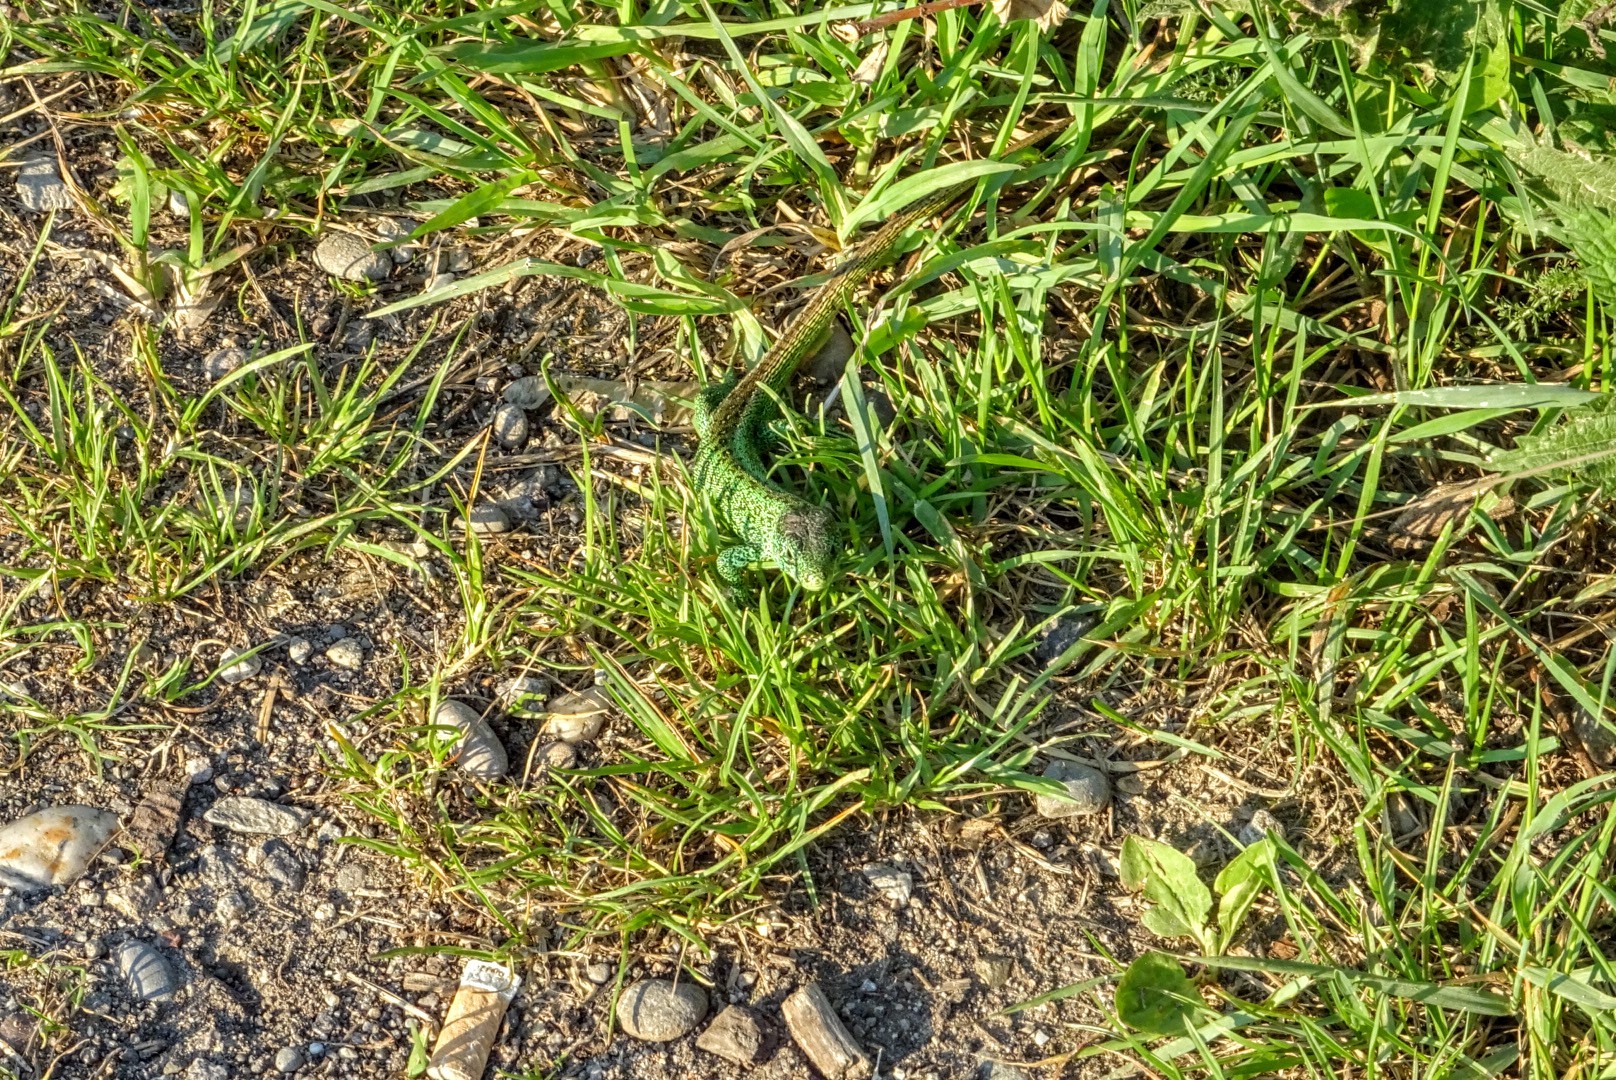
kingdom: Animalia
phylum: Chordata
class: Squamata
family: Lacertidae
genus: Lacerta
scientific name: Lacerta agilis
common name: Sand lizard
